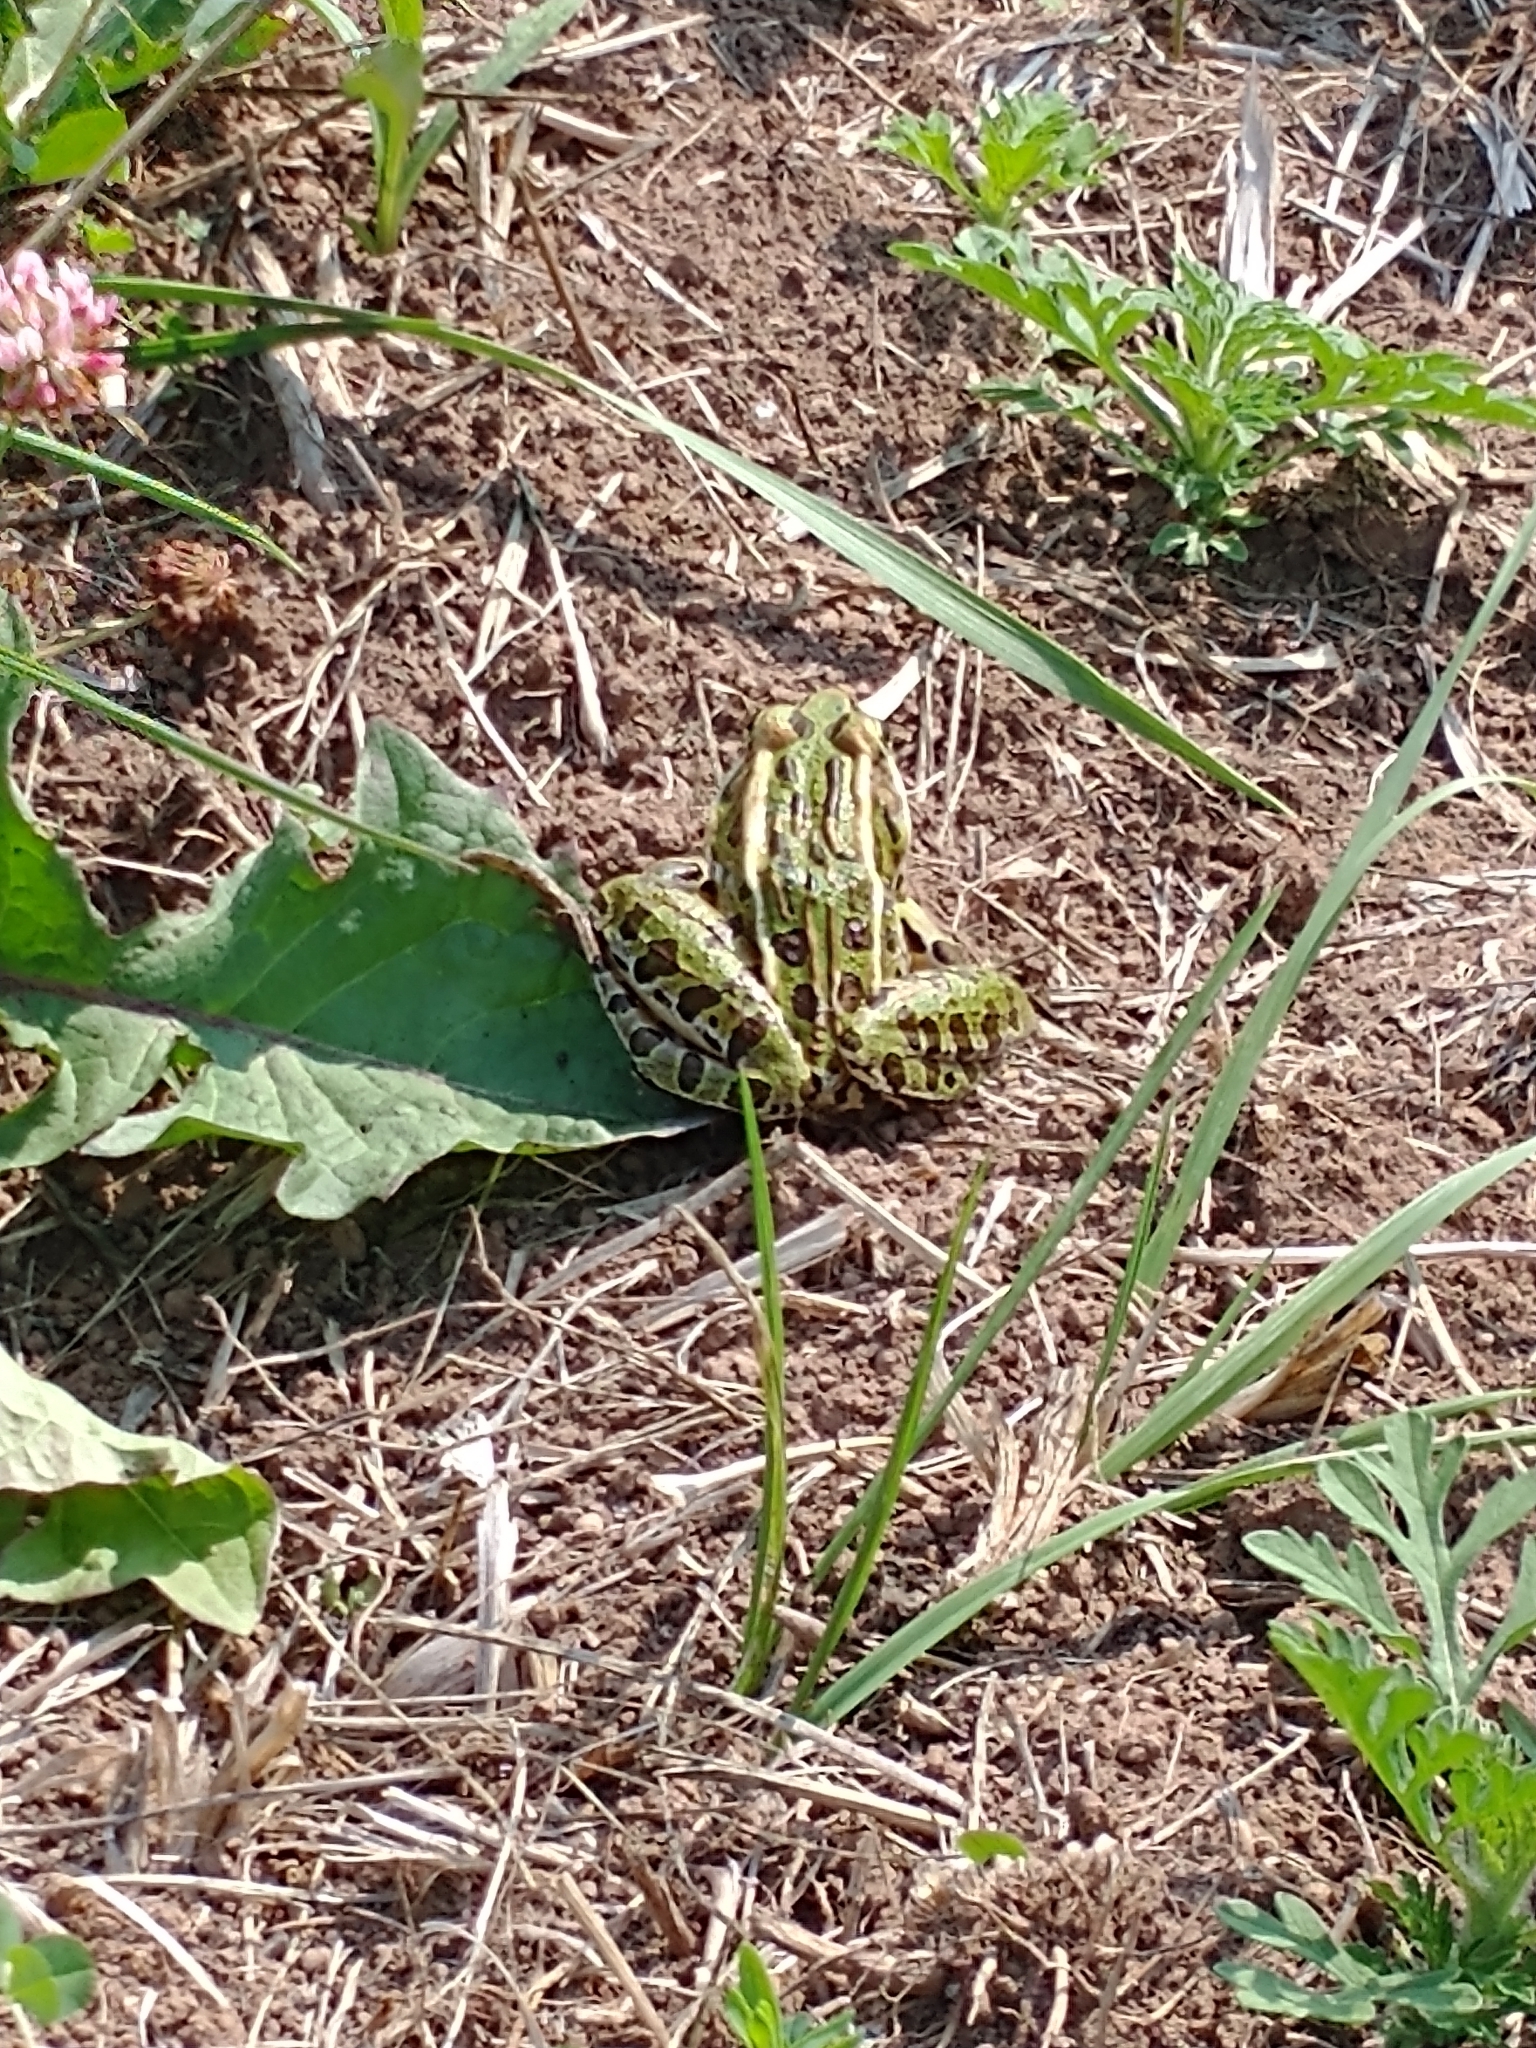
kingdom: Animalia
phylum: Chordata
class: Amphibia
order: Anura
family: Ranidae
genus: Lithobates
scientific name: Lithobates pipiens
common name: Northern leopard frog
